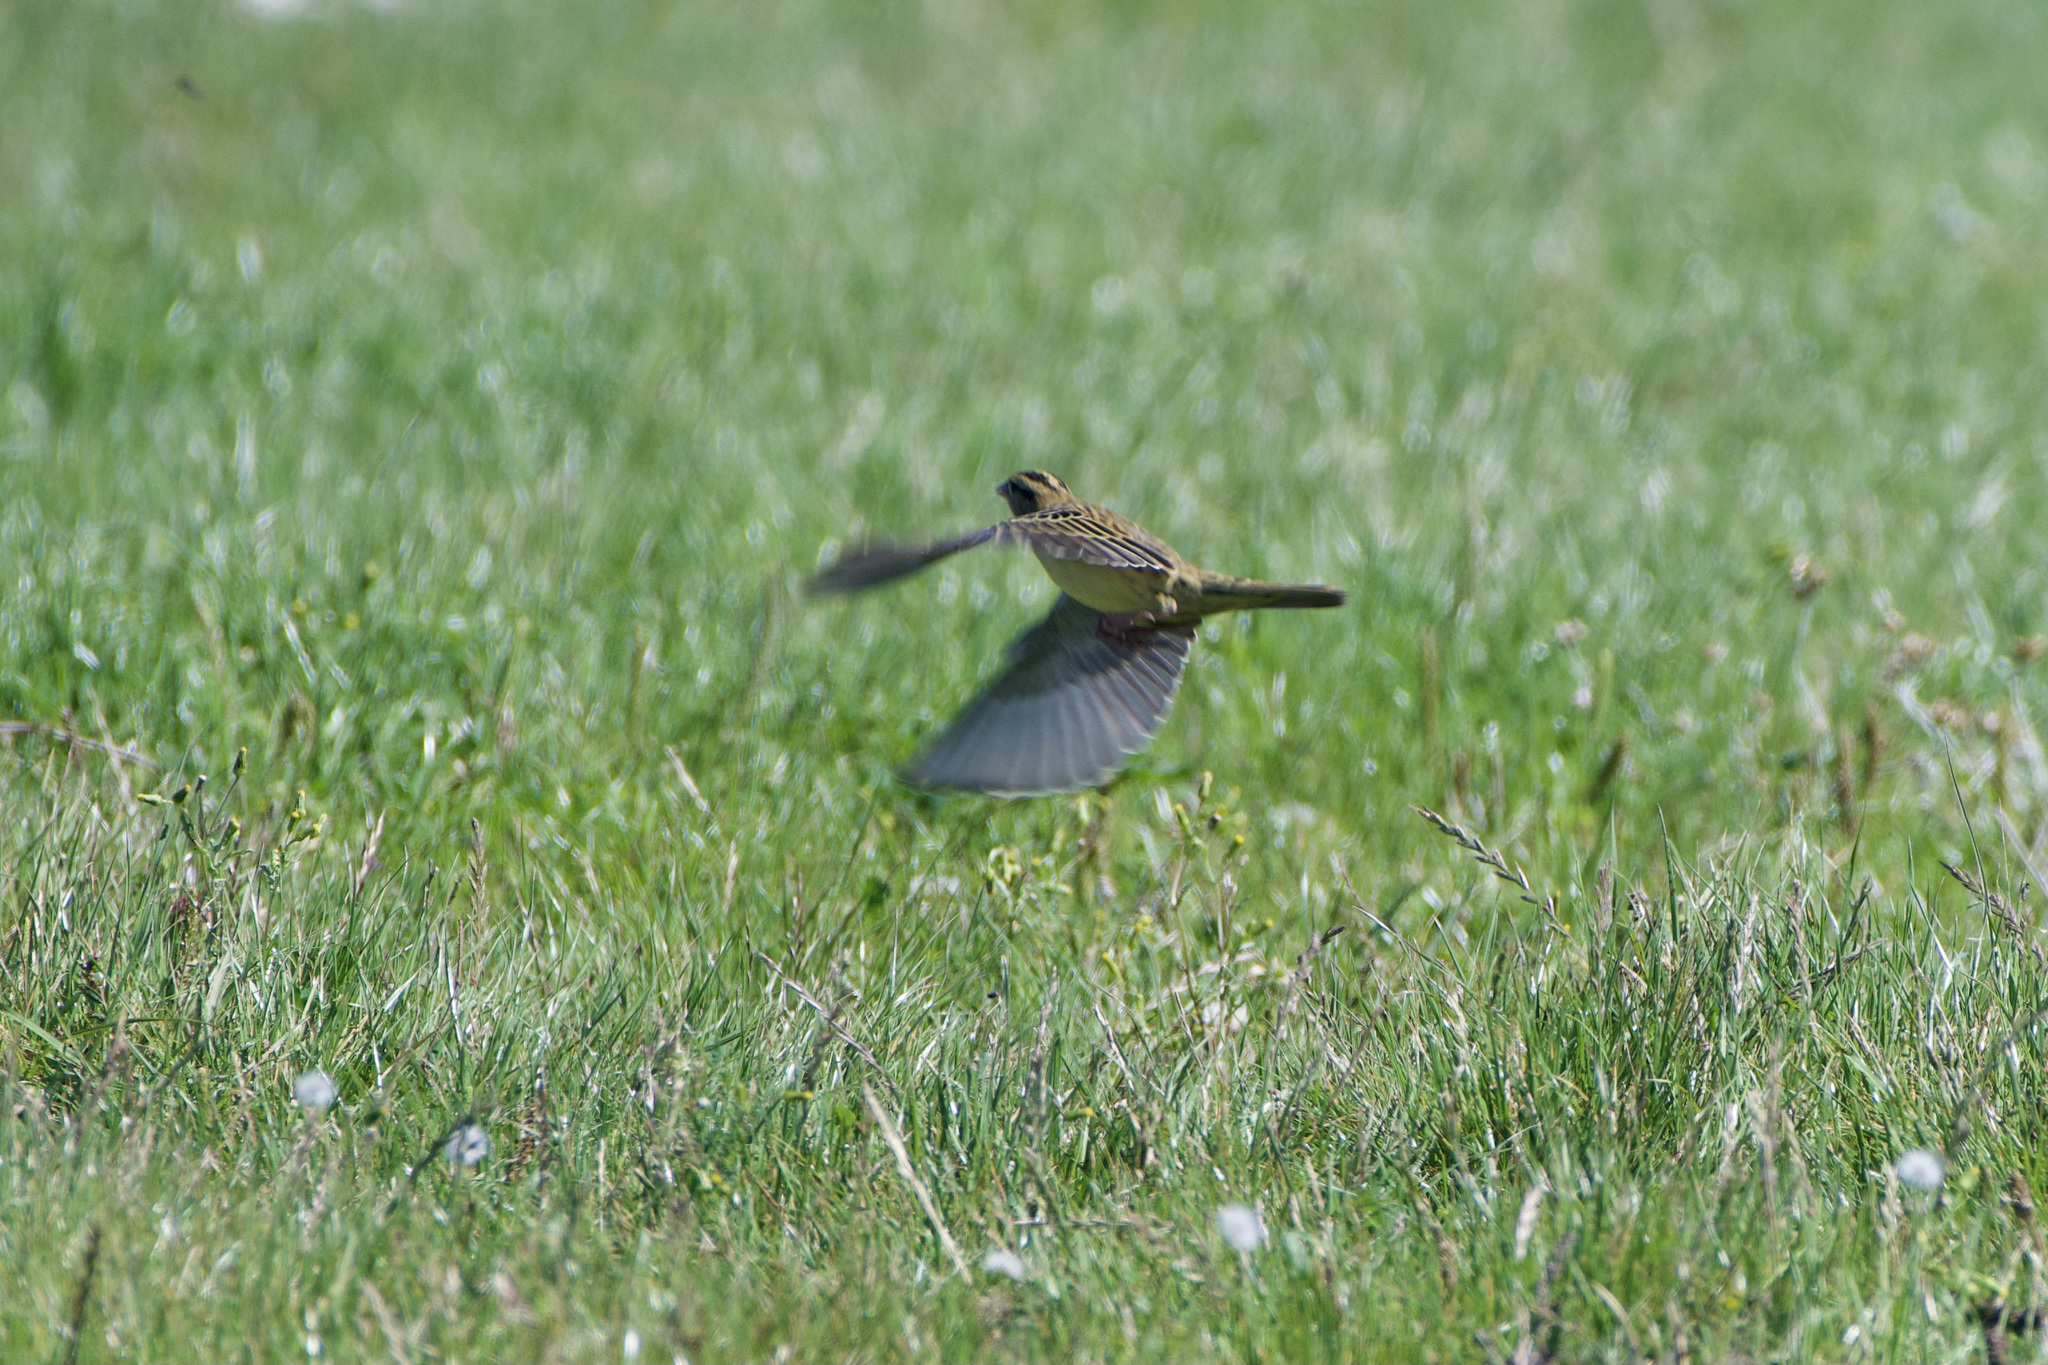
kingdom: Animalia
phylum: Chordata
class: Aves
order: Passeriformes
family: Icteridae
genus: Dolichonyx
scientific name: Dolichonyx oryzivorus
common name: Bobolink
